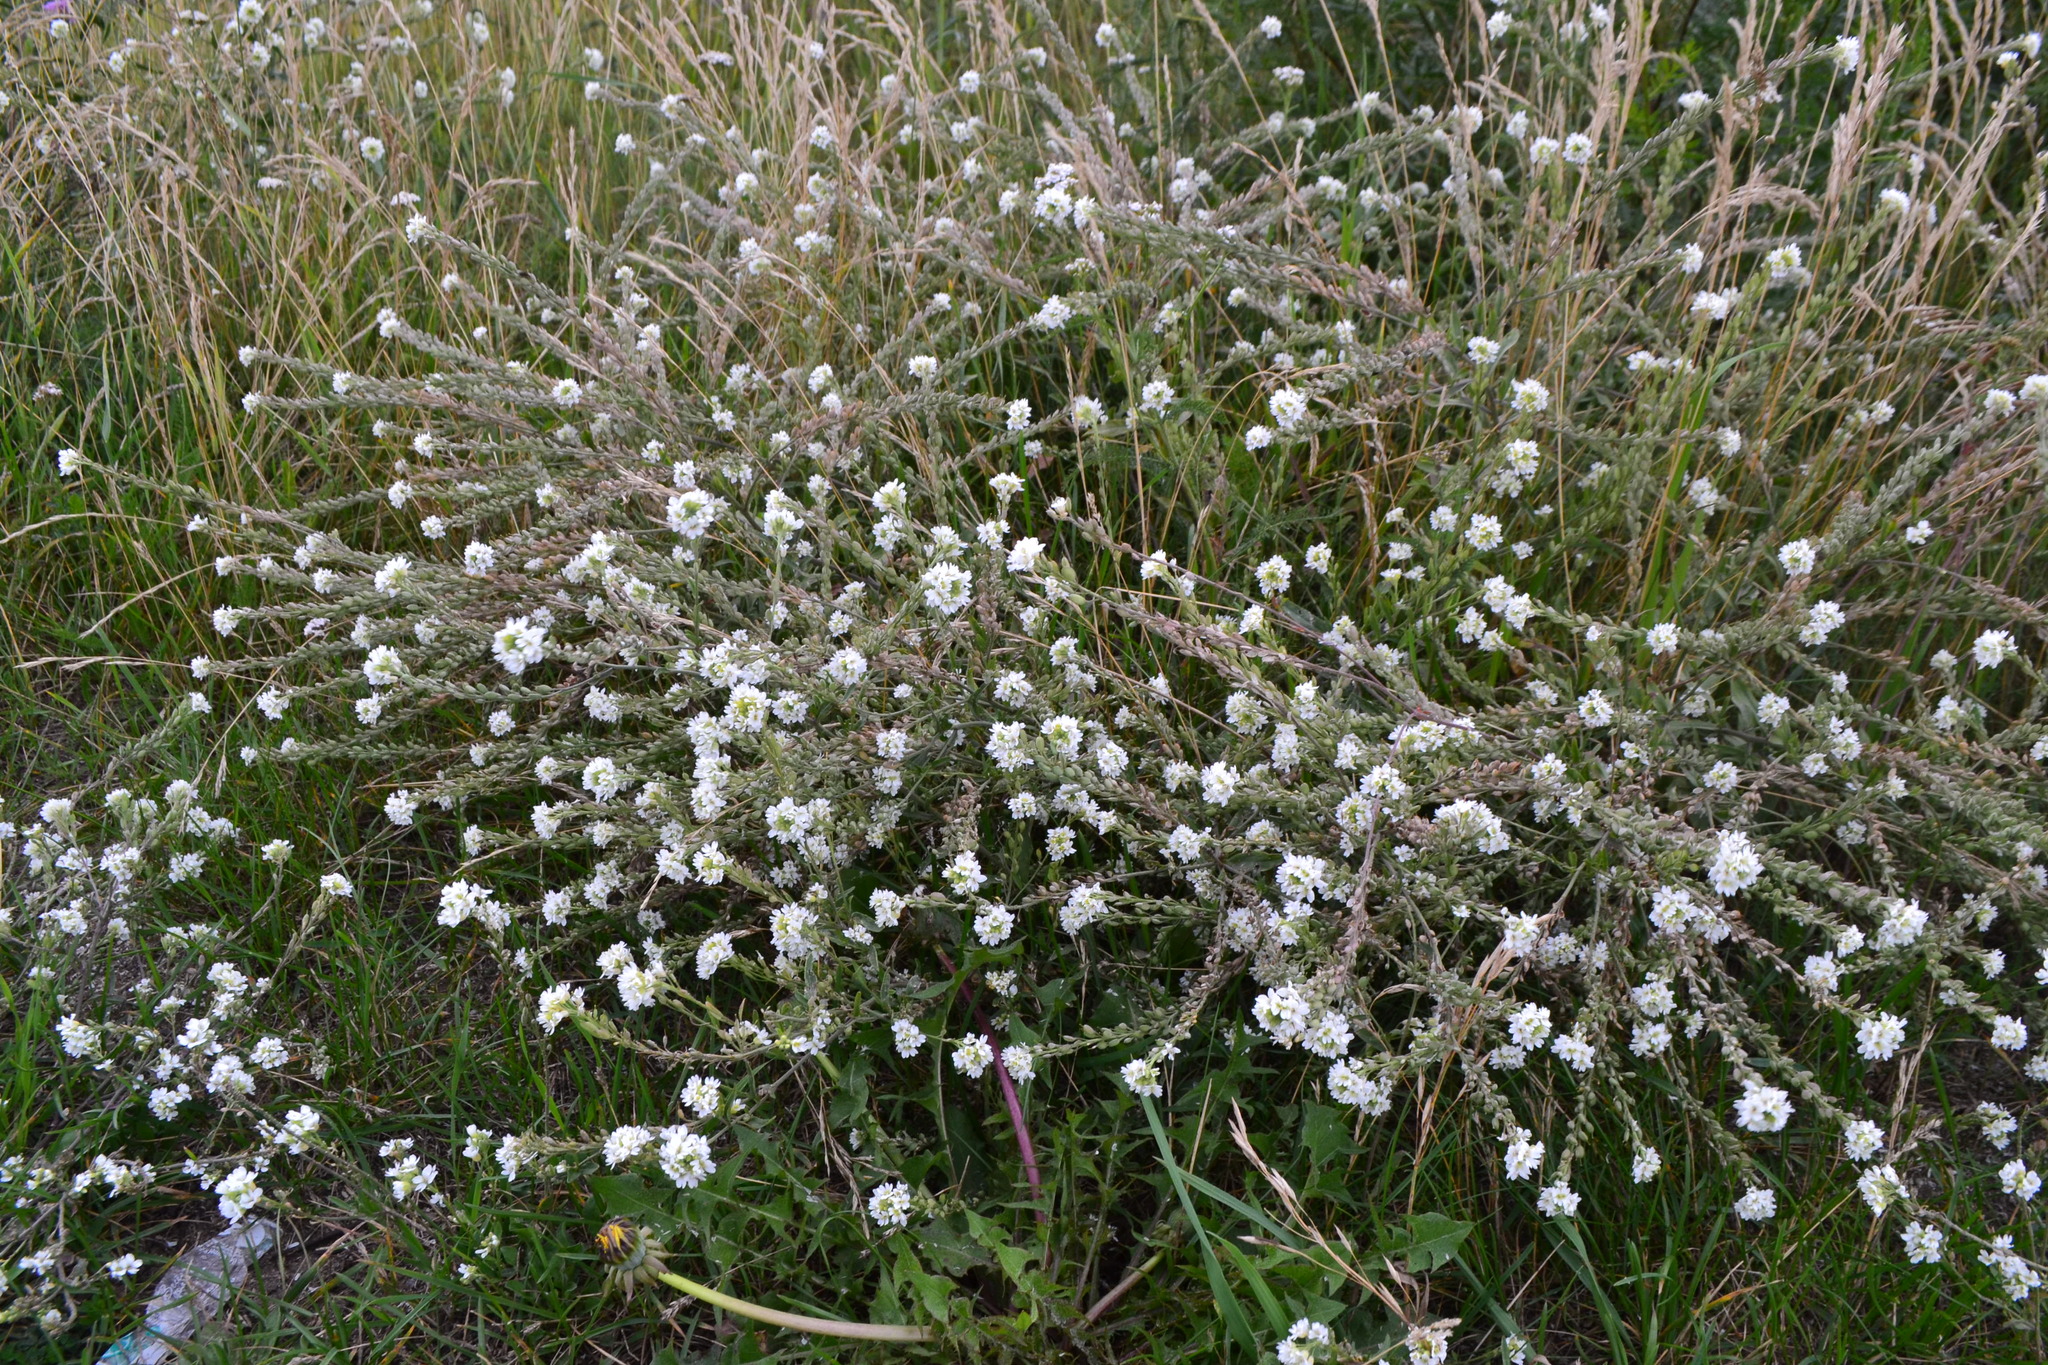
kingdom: Plantae
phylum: Tracheophyta
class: Magnoliopsida
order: Brassicales
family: Brassicaceae
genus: Berteroa
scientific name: Berteroa incana
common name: Hoary alison
